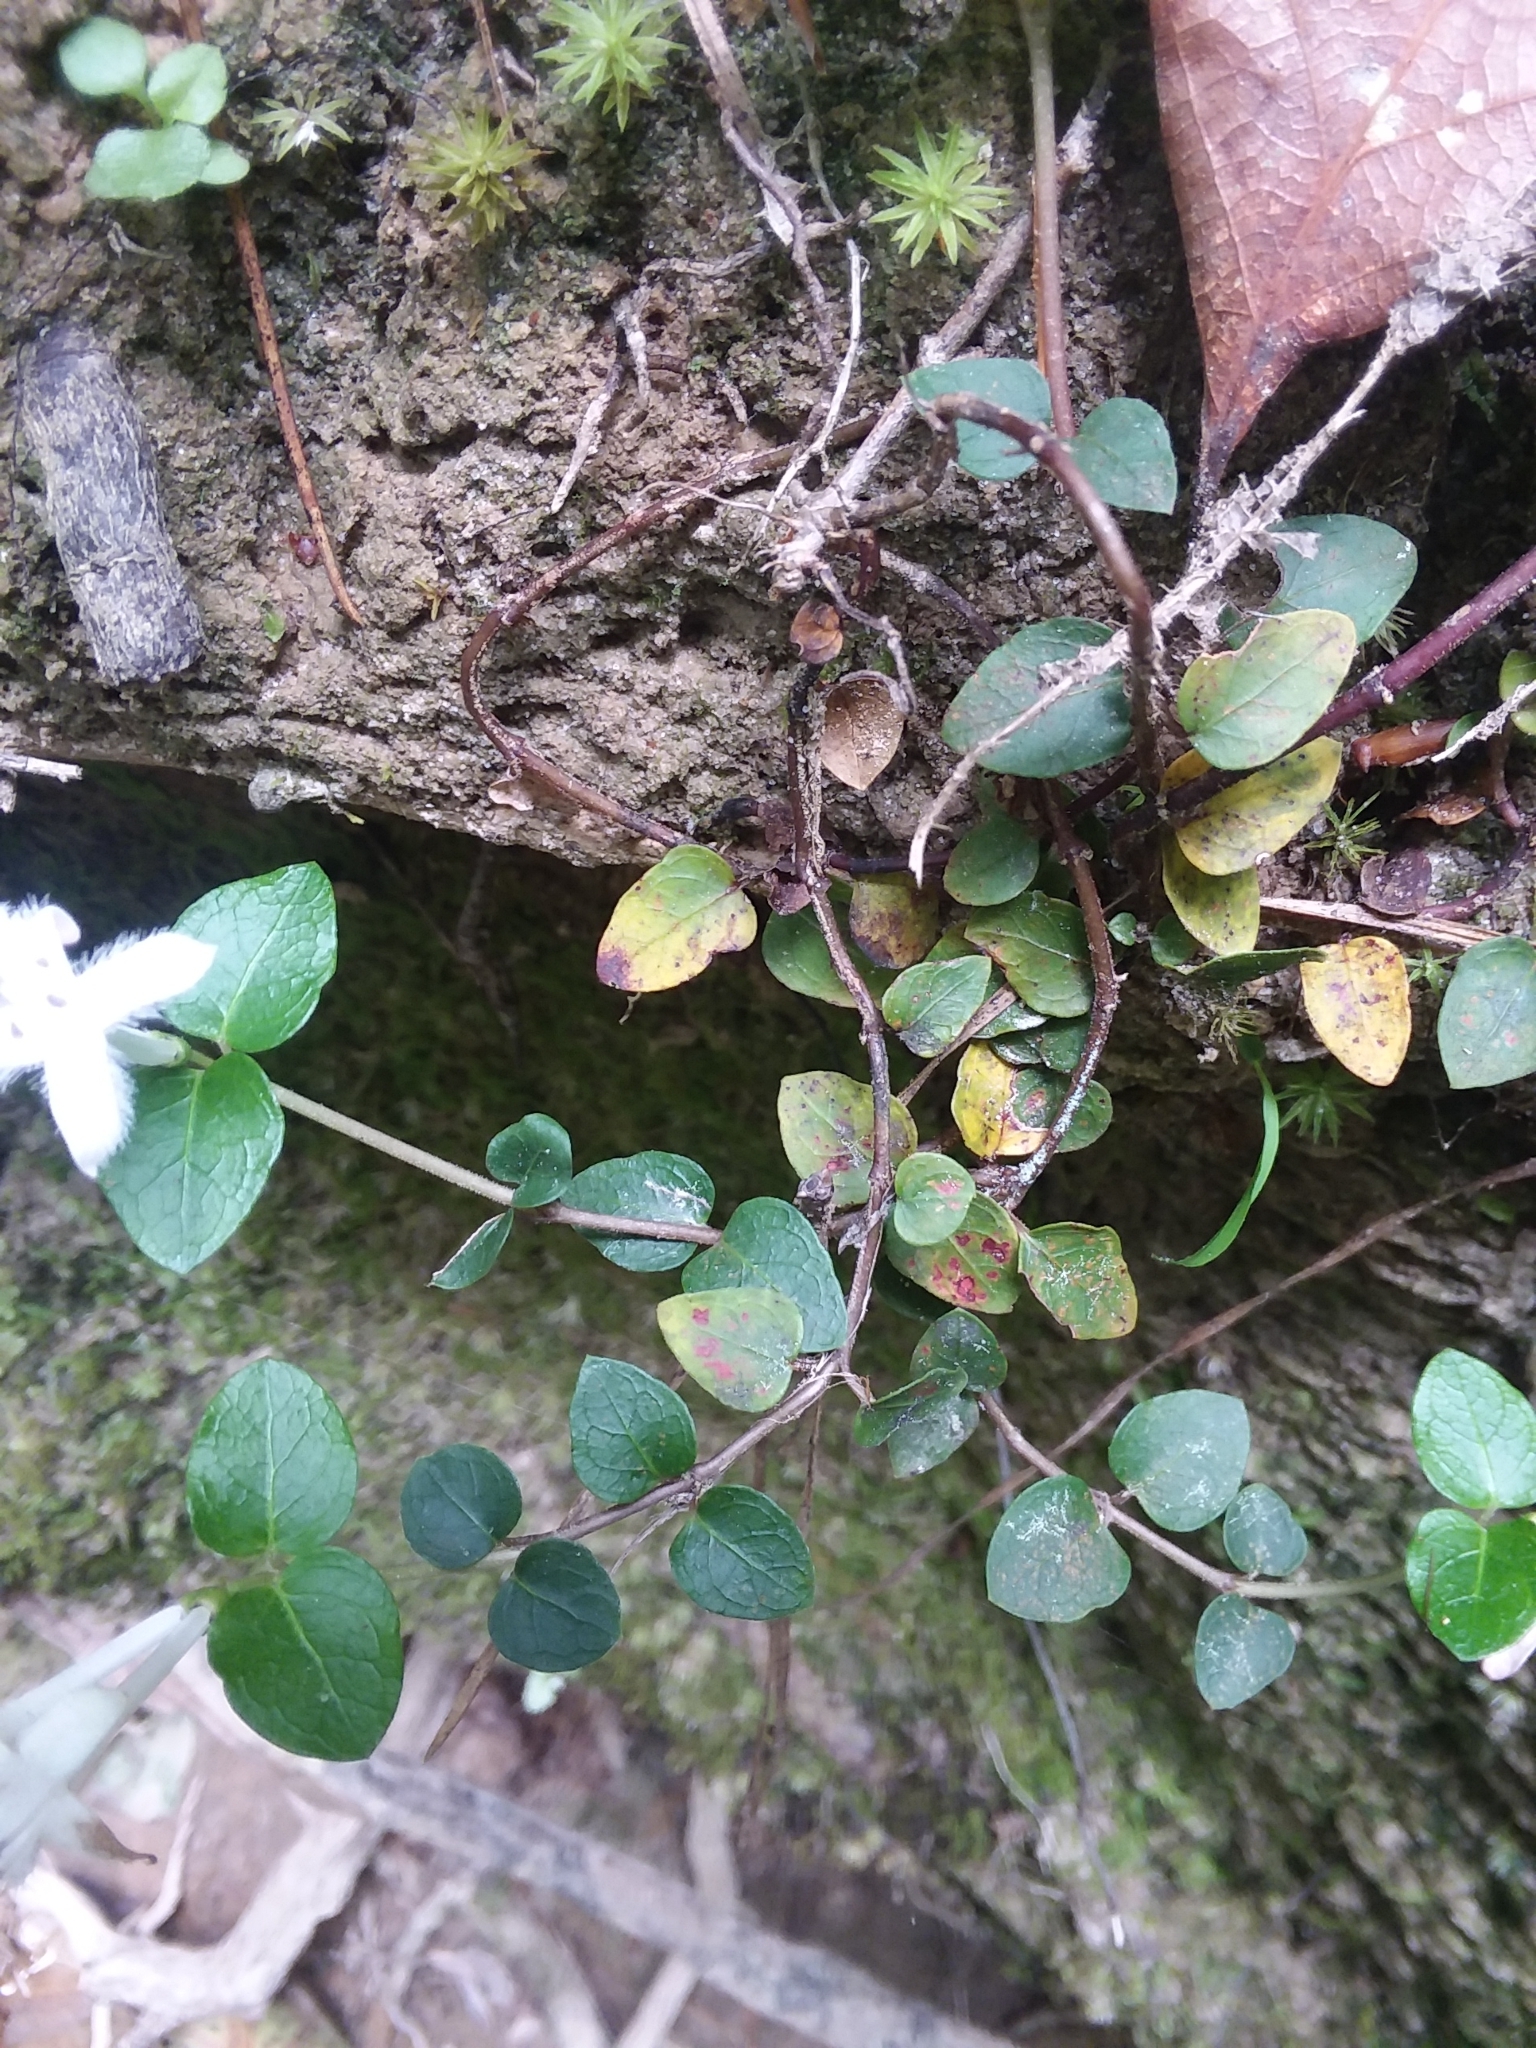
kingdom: Plantae
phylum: Tracheophyta
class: Magnoliopsida
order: Gentianales
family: Rubiaceae
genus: Mitchella
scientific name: Mitchella repens
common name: Partridge-berry
